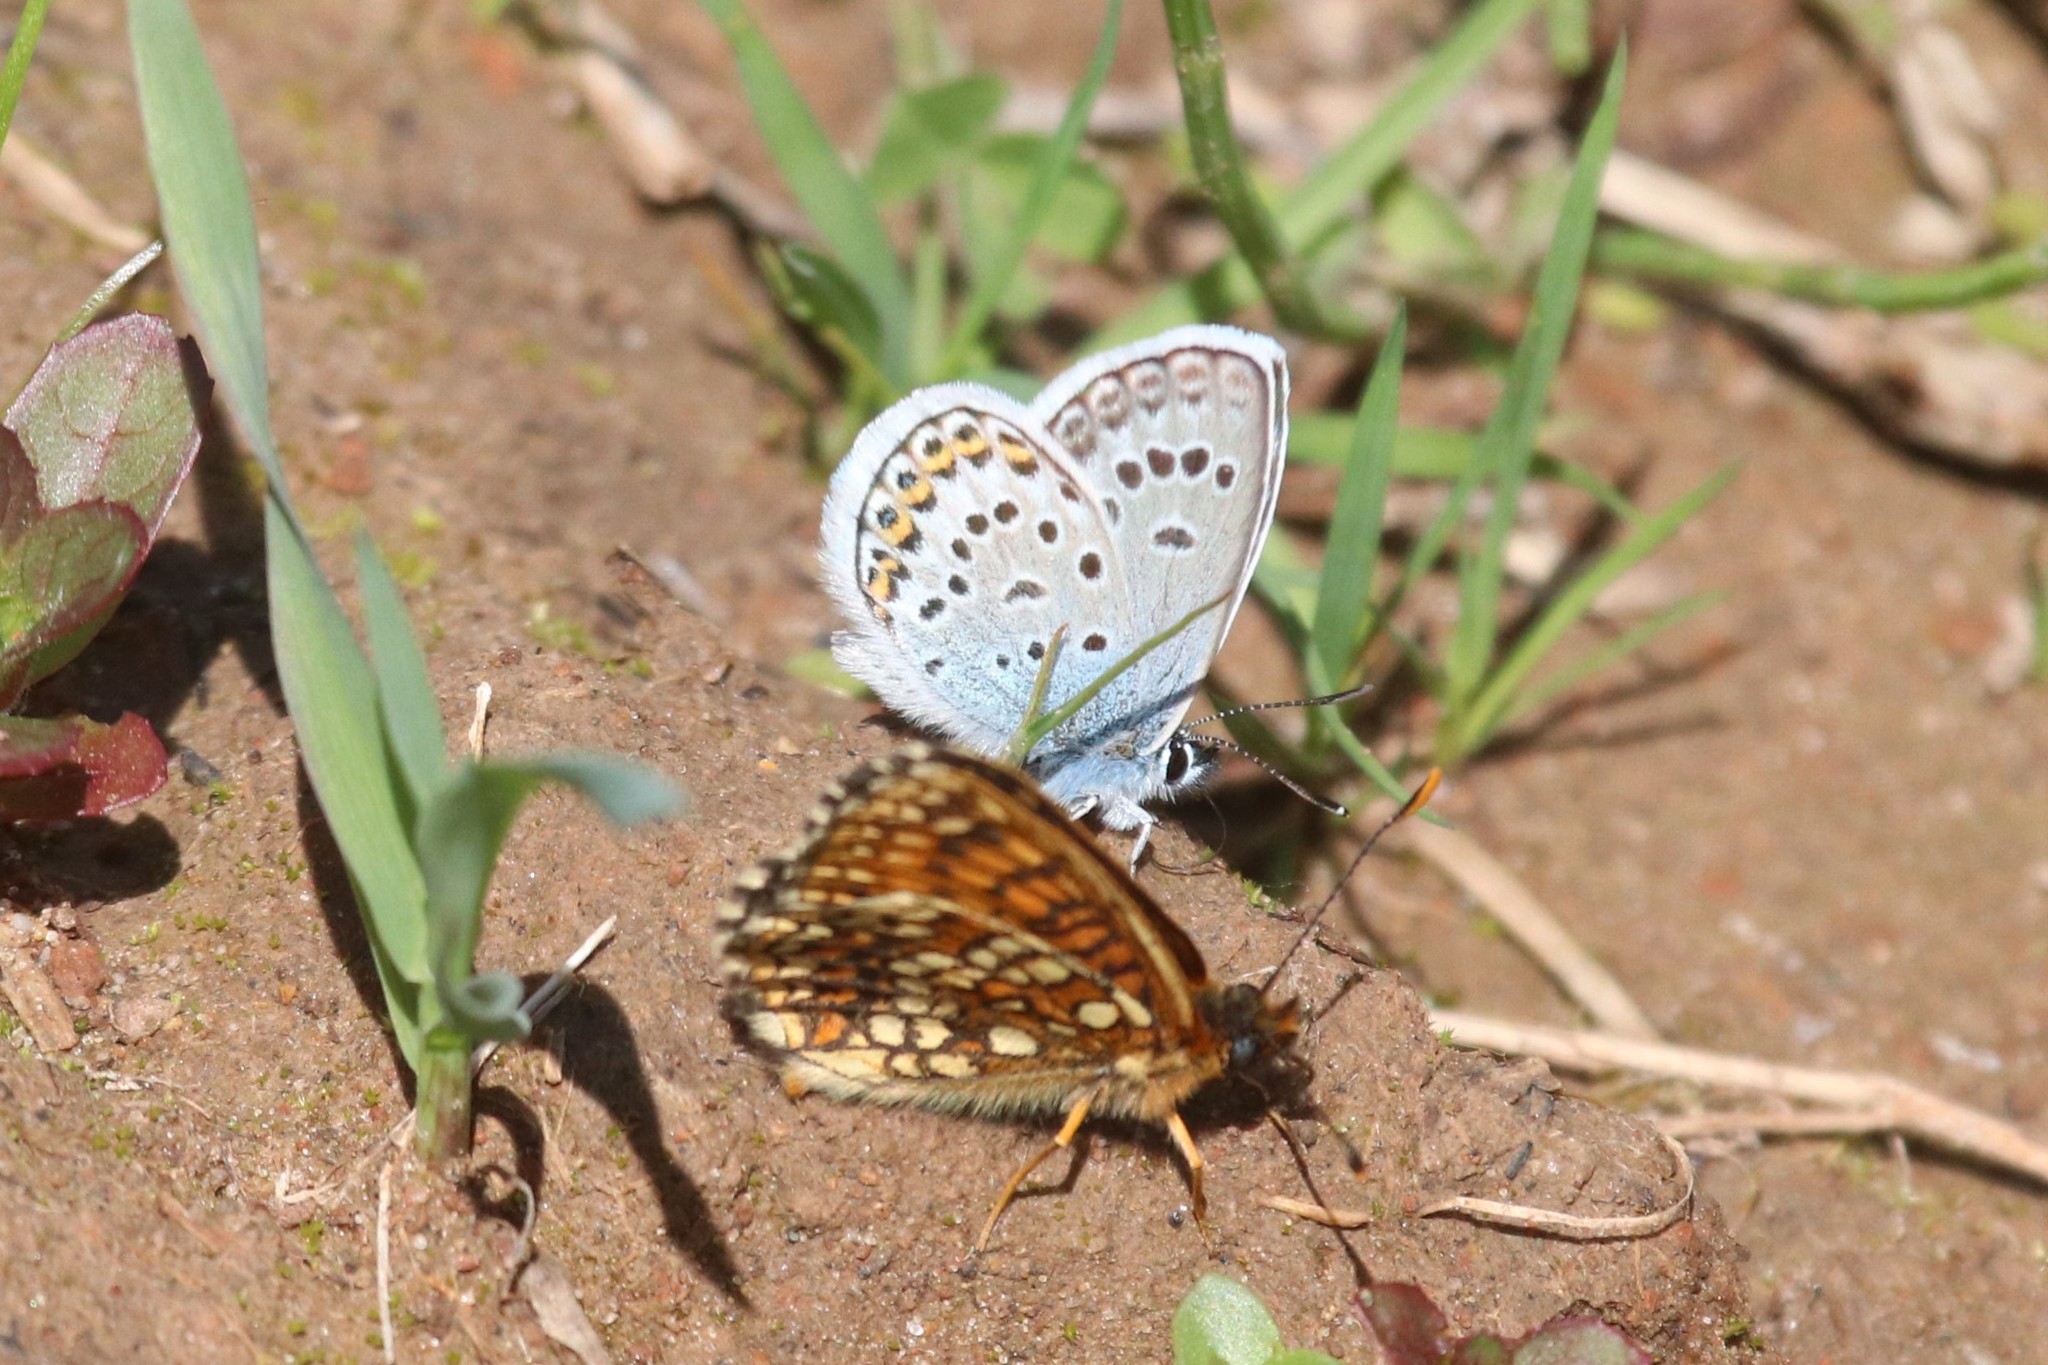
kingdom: Animalia
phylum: Arthropoda
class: Insecta
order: Lepidoptera
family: Lycaenidae
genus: Plebejus
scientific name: Plebejus argus
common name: Silver-studded blue
